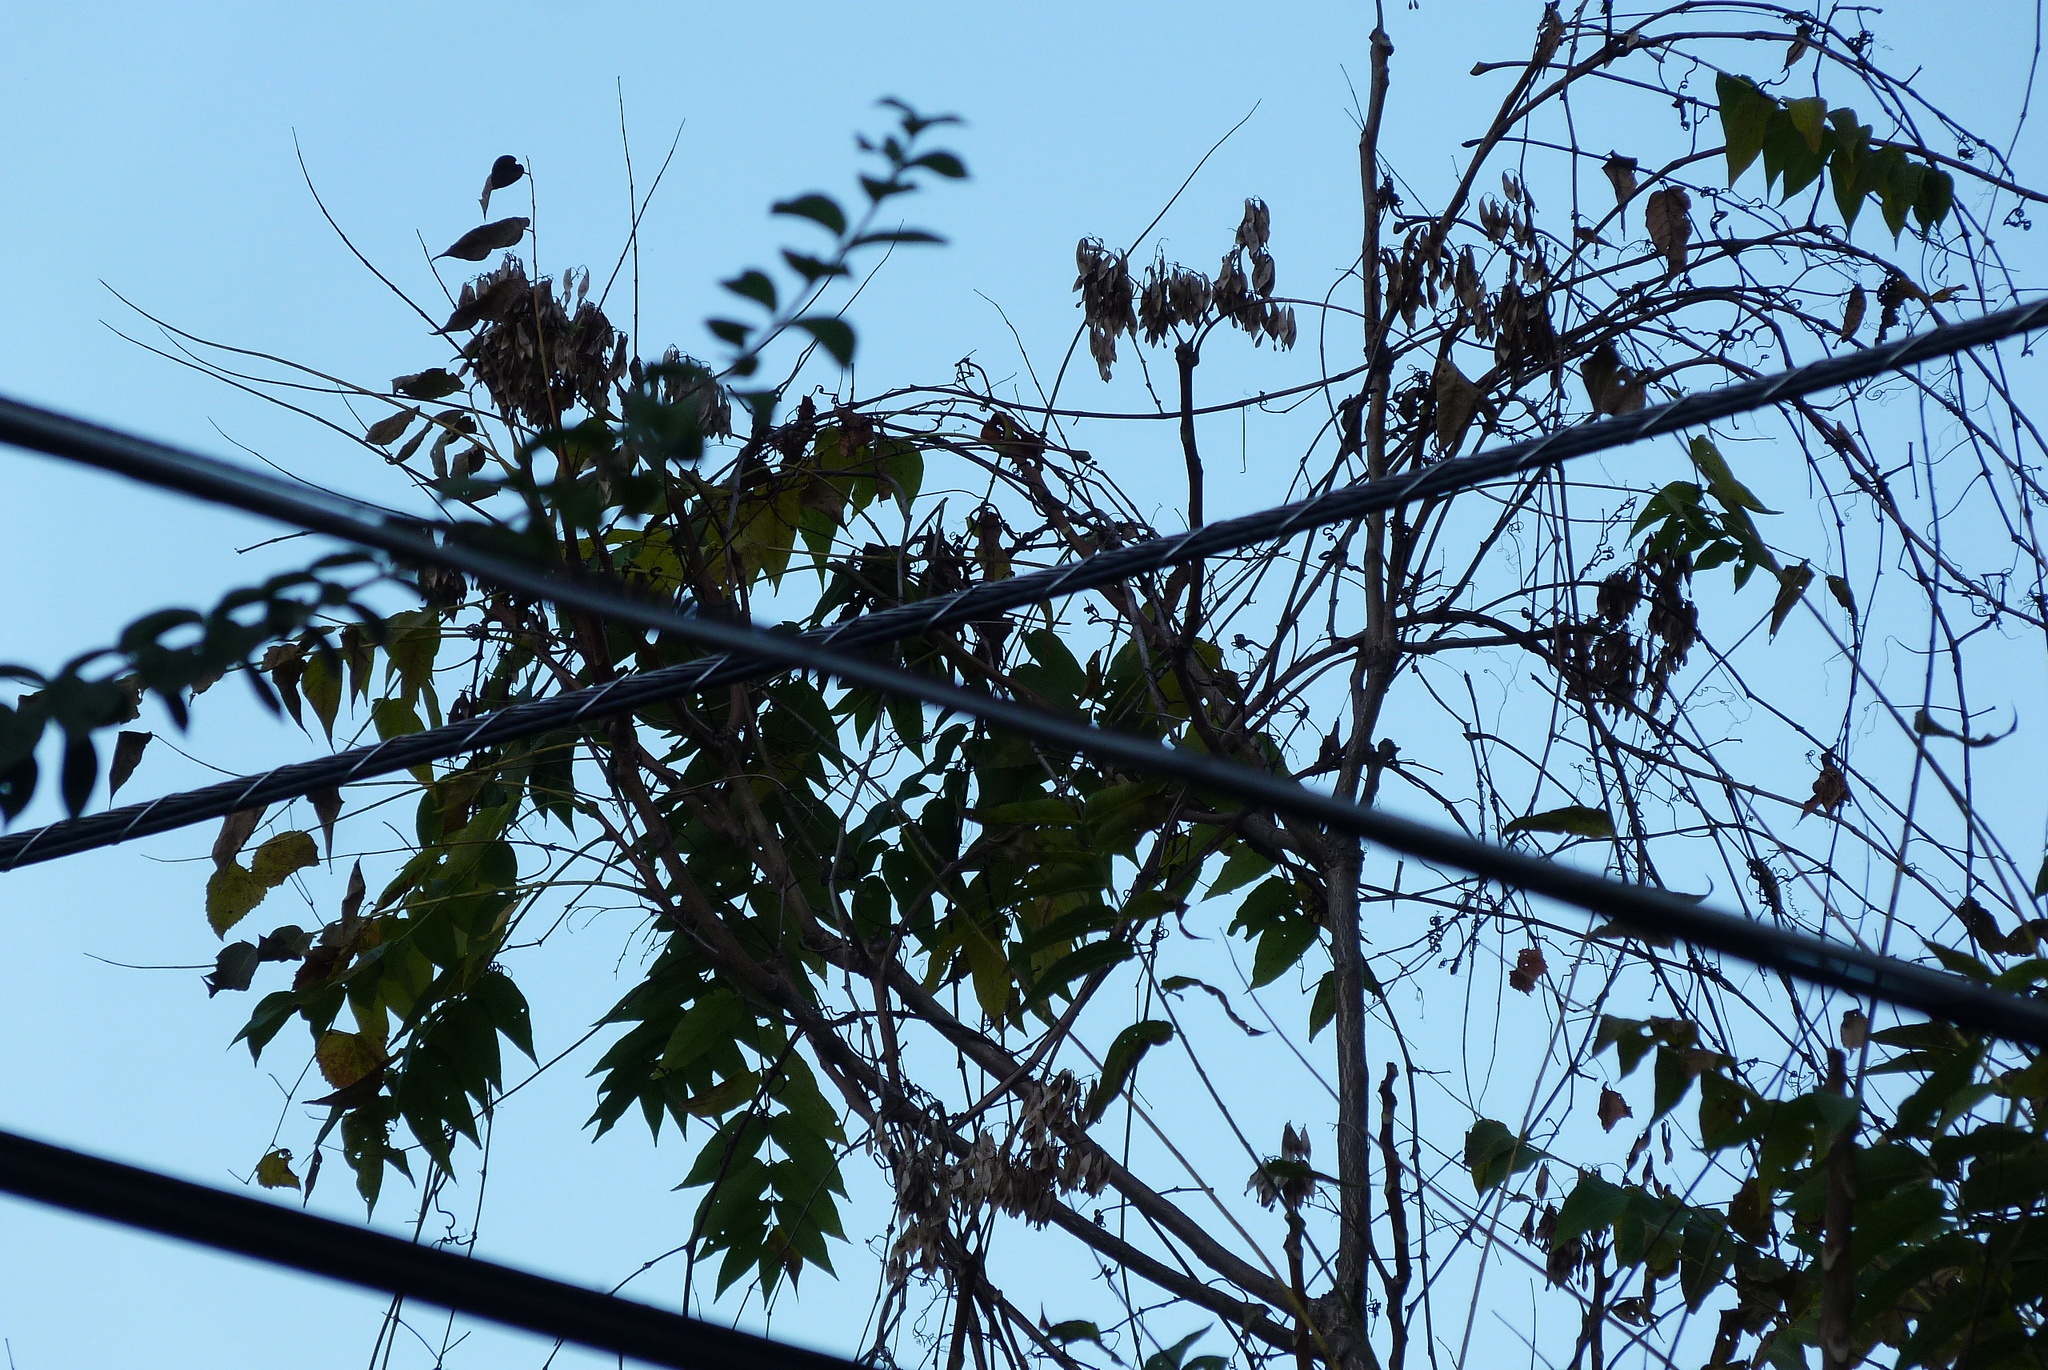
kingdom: Plantae
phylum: Tracheophyta
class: Magnoliopsida
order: Sapindales
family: Simaroubaceae
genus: Ailanthus
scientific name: Ailanthus altissima
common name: Tree-of-heaven
